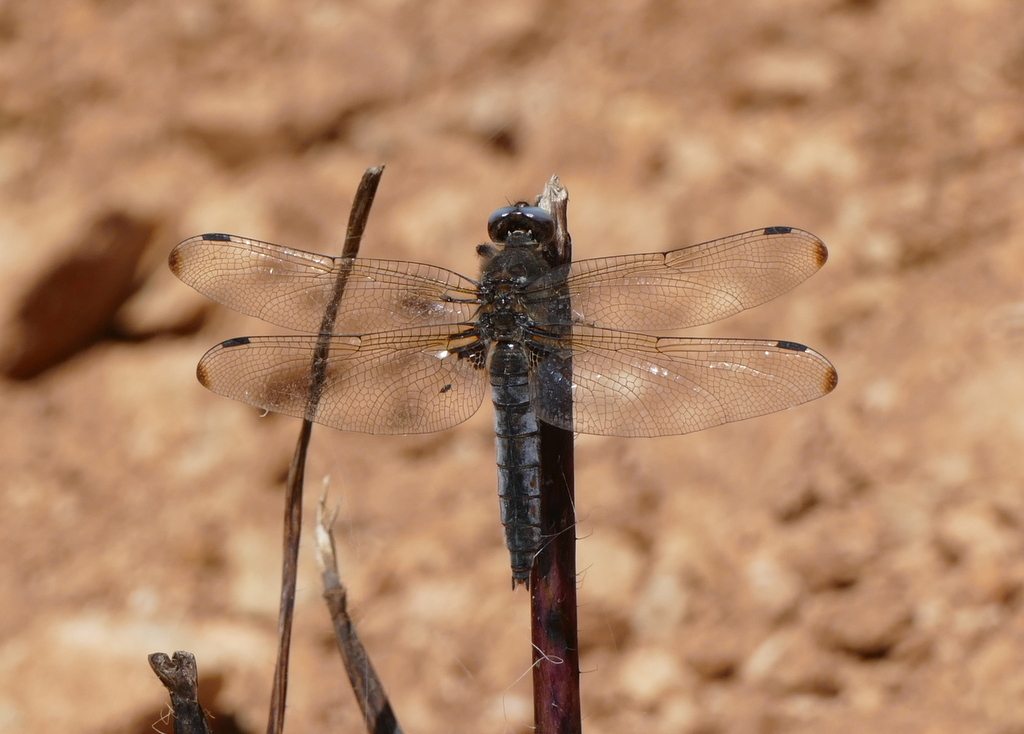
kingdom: Animalia
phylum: Arthropoda
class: Insecta
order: Odonata
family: Libellulidae
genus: Libellula
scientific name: Libellula fulva
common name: Blue chaser
